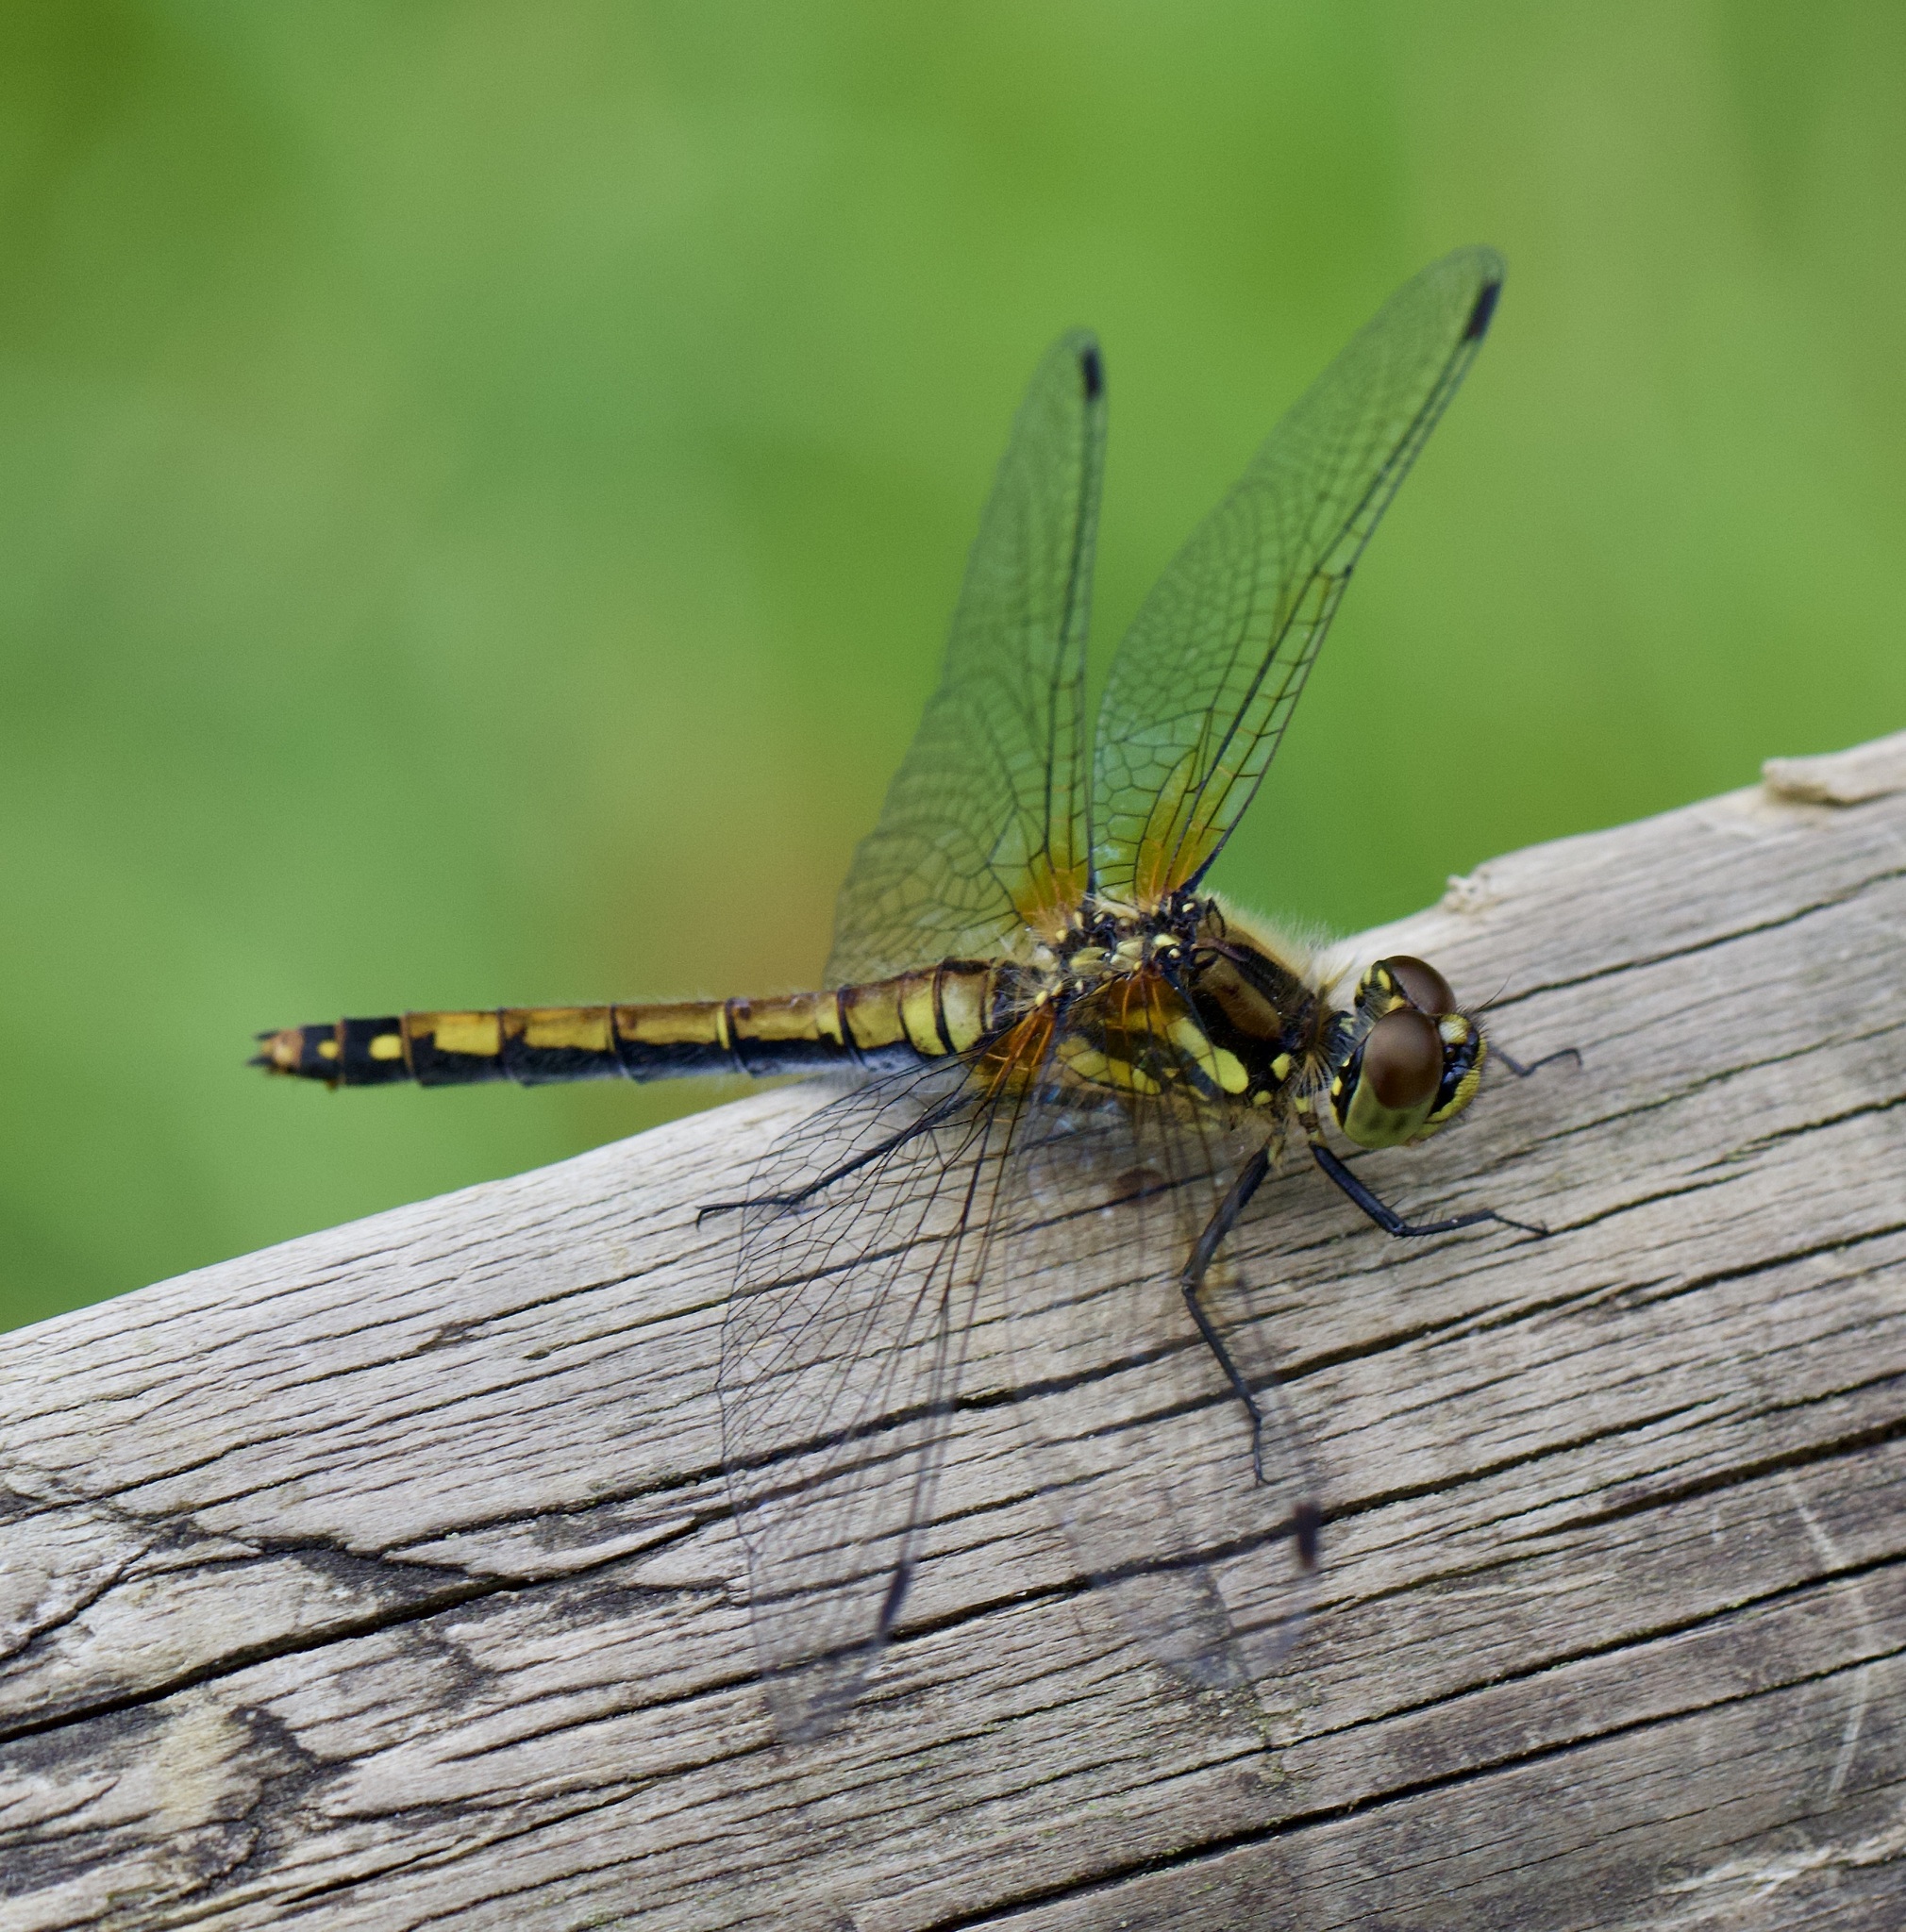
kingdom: Animalia
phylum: Arthropoda
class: Insecta
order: Odonata
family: Libellulidae
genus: Sympetrum
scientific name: Sympetrum danae
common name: Black darter
